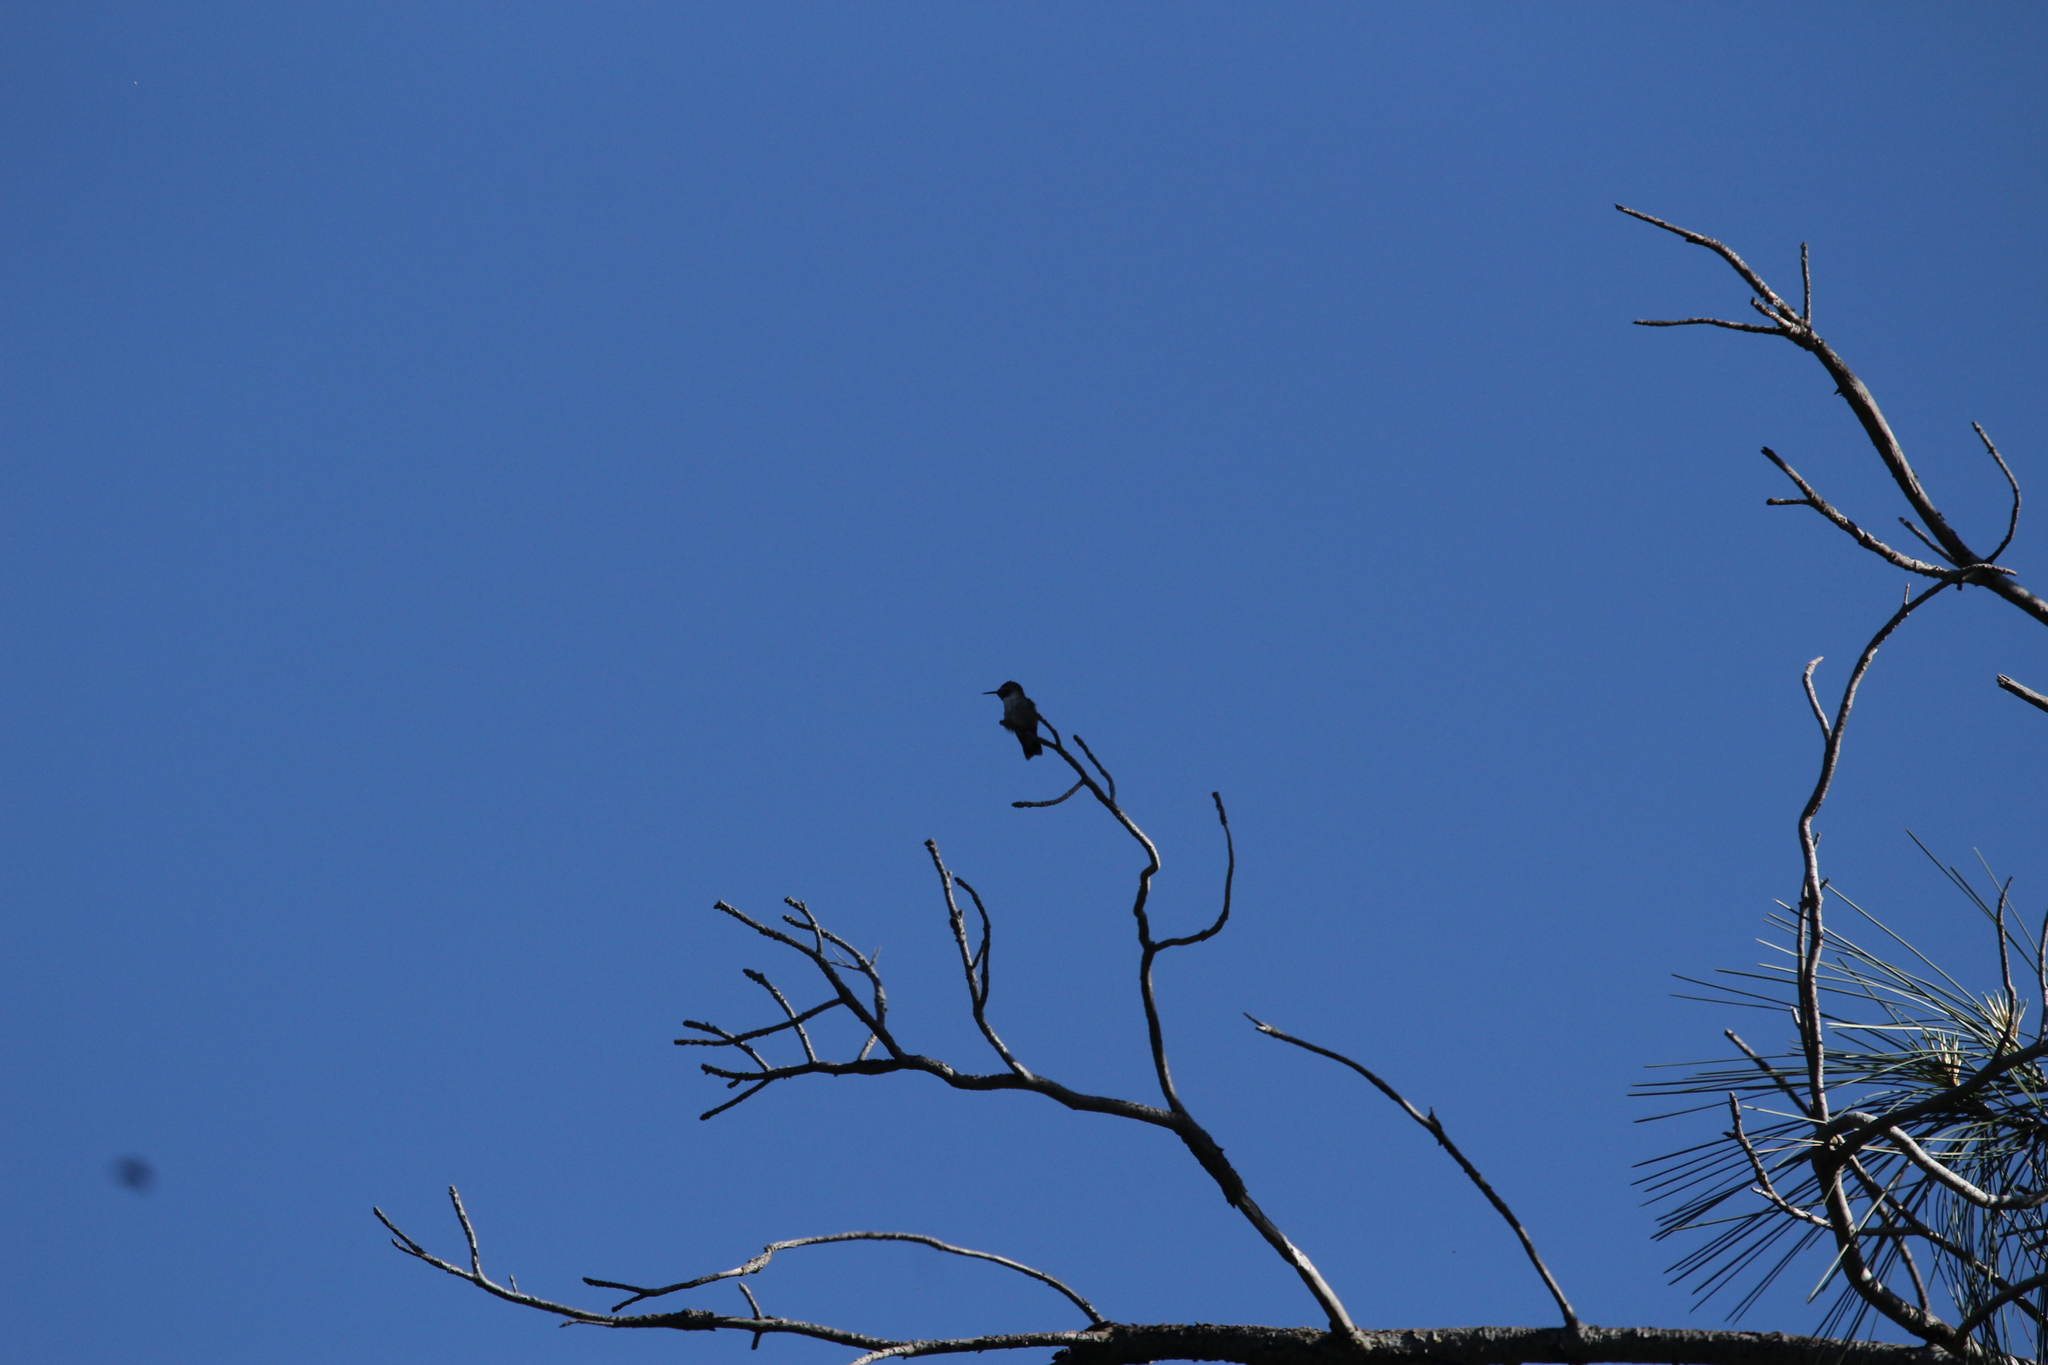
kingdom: Animalia
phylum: Chordata
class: Aves
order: Apodiformes
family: Trochilidae
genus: Calypte
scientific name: Calypte anna
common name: Anna's hummingbird
